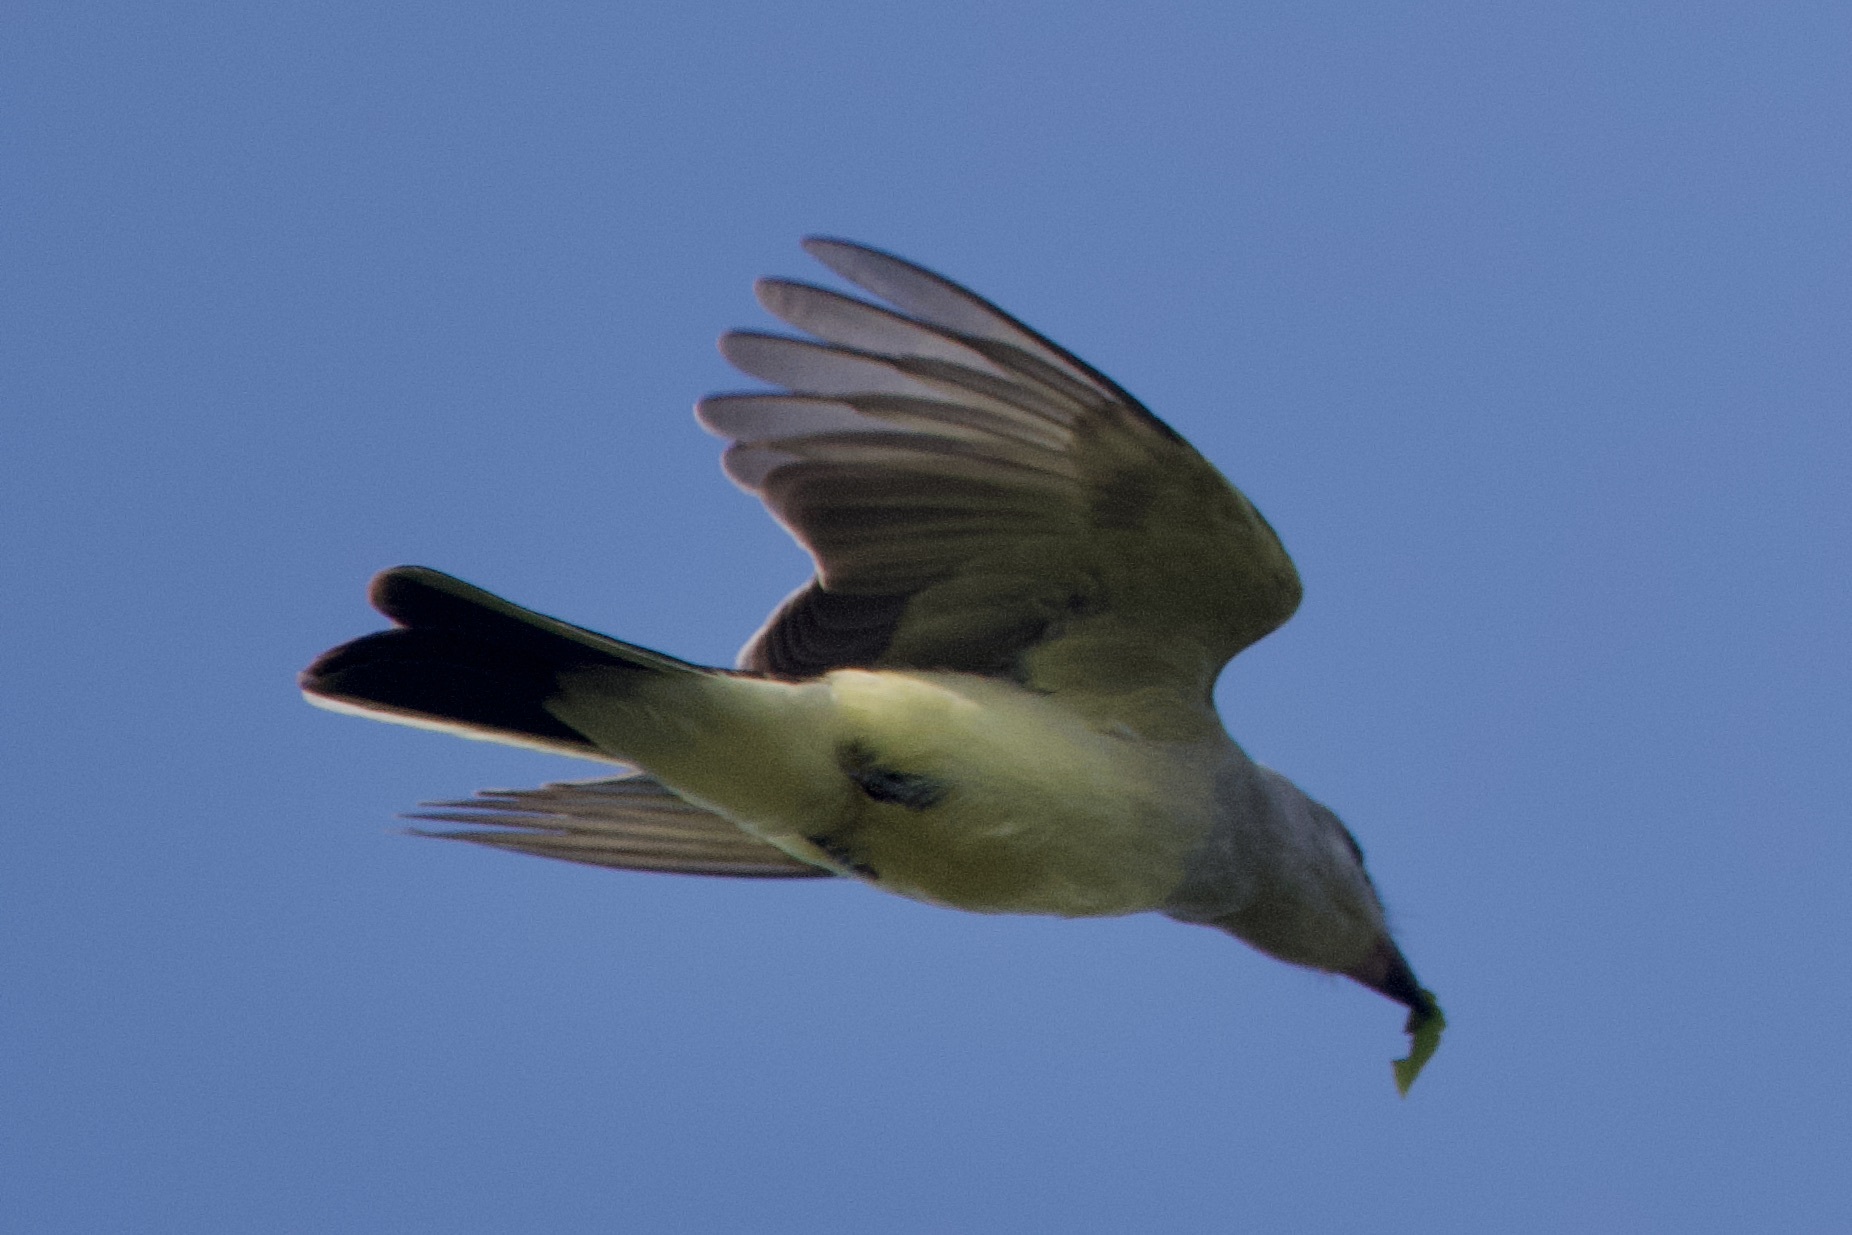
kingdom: Animalia
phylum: Chordata
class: Aves
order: Passeriformes
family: Tyrannidae
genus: Tyrannus
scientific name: Tyrannus verticalis
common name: Western kingbird
